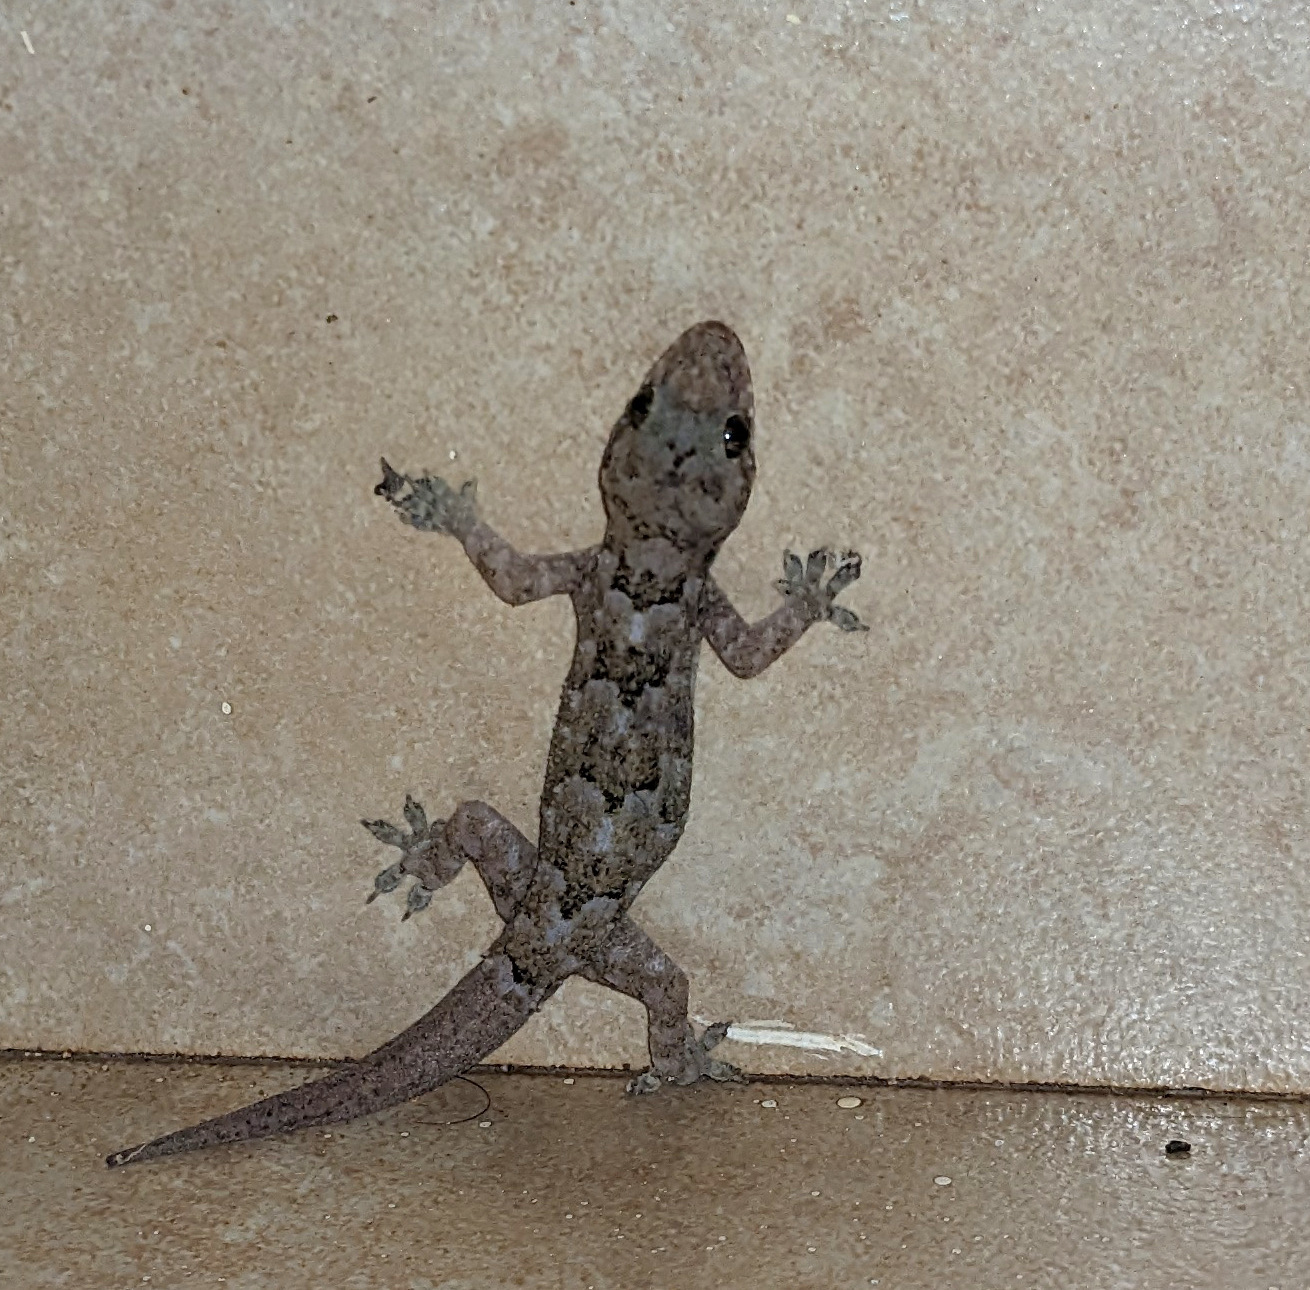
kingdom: Animalia
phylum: Chordata
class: Squamata
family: Gekkonidae
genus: Hemidactylus
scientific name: Hemidactylus mabouia
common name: House gecko
